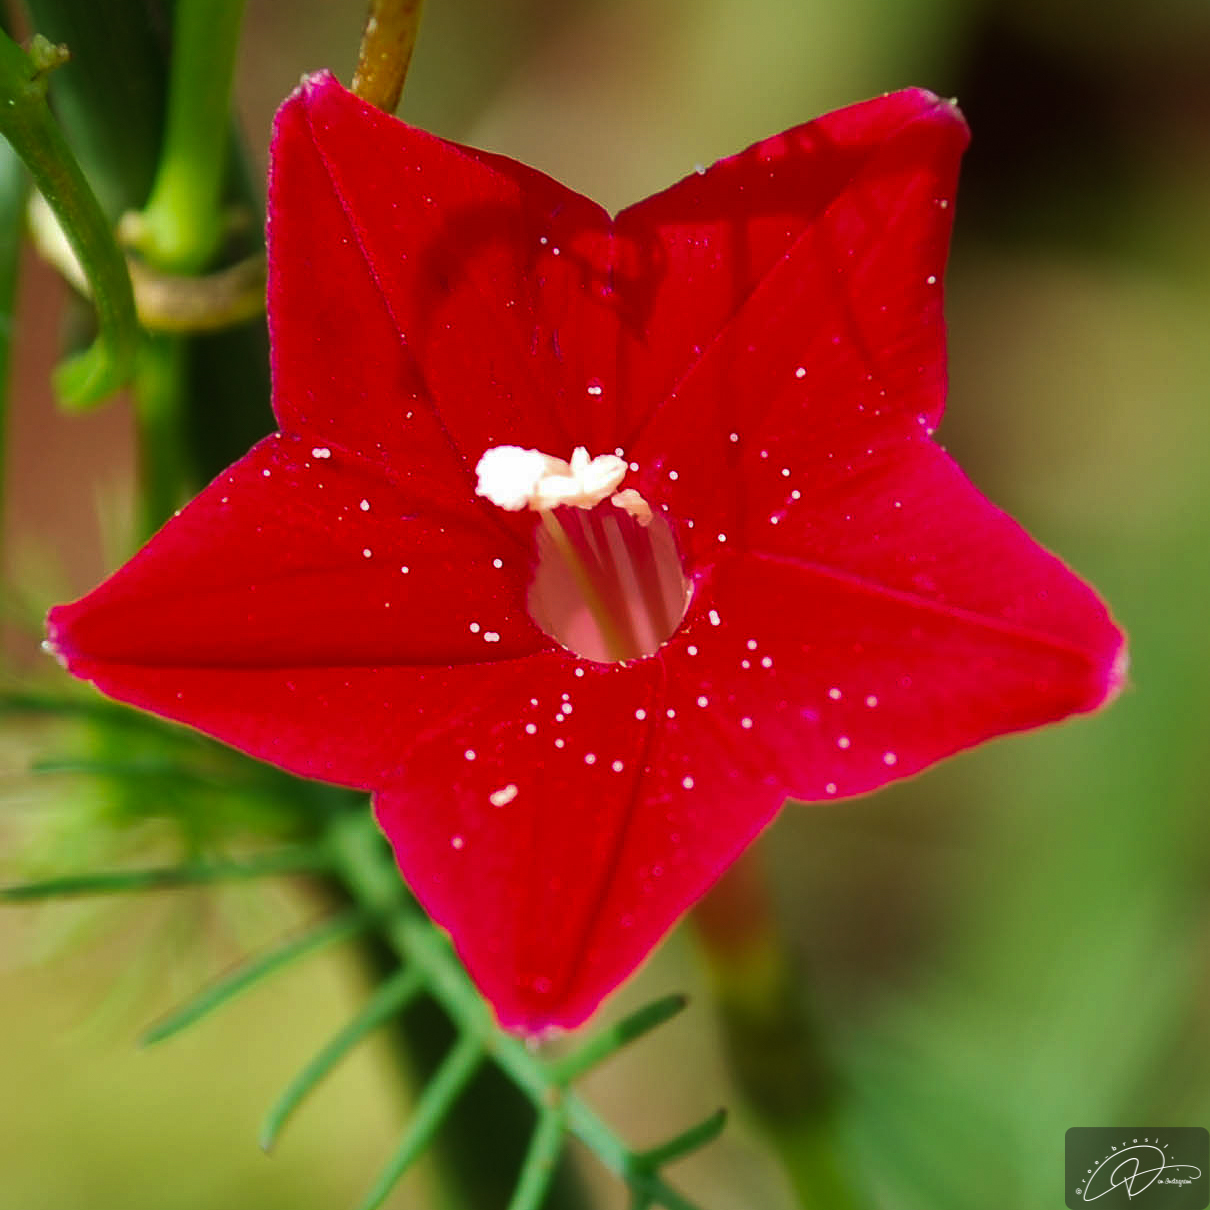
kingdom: Plantae
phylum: Tracheophyta
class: Magnoliopsida
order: Solanales
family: Convolvulaceae
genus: Ipomoea
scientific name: Ipomoea quamoclit
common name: Cypress vine
